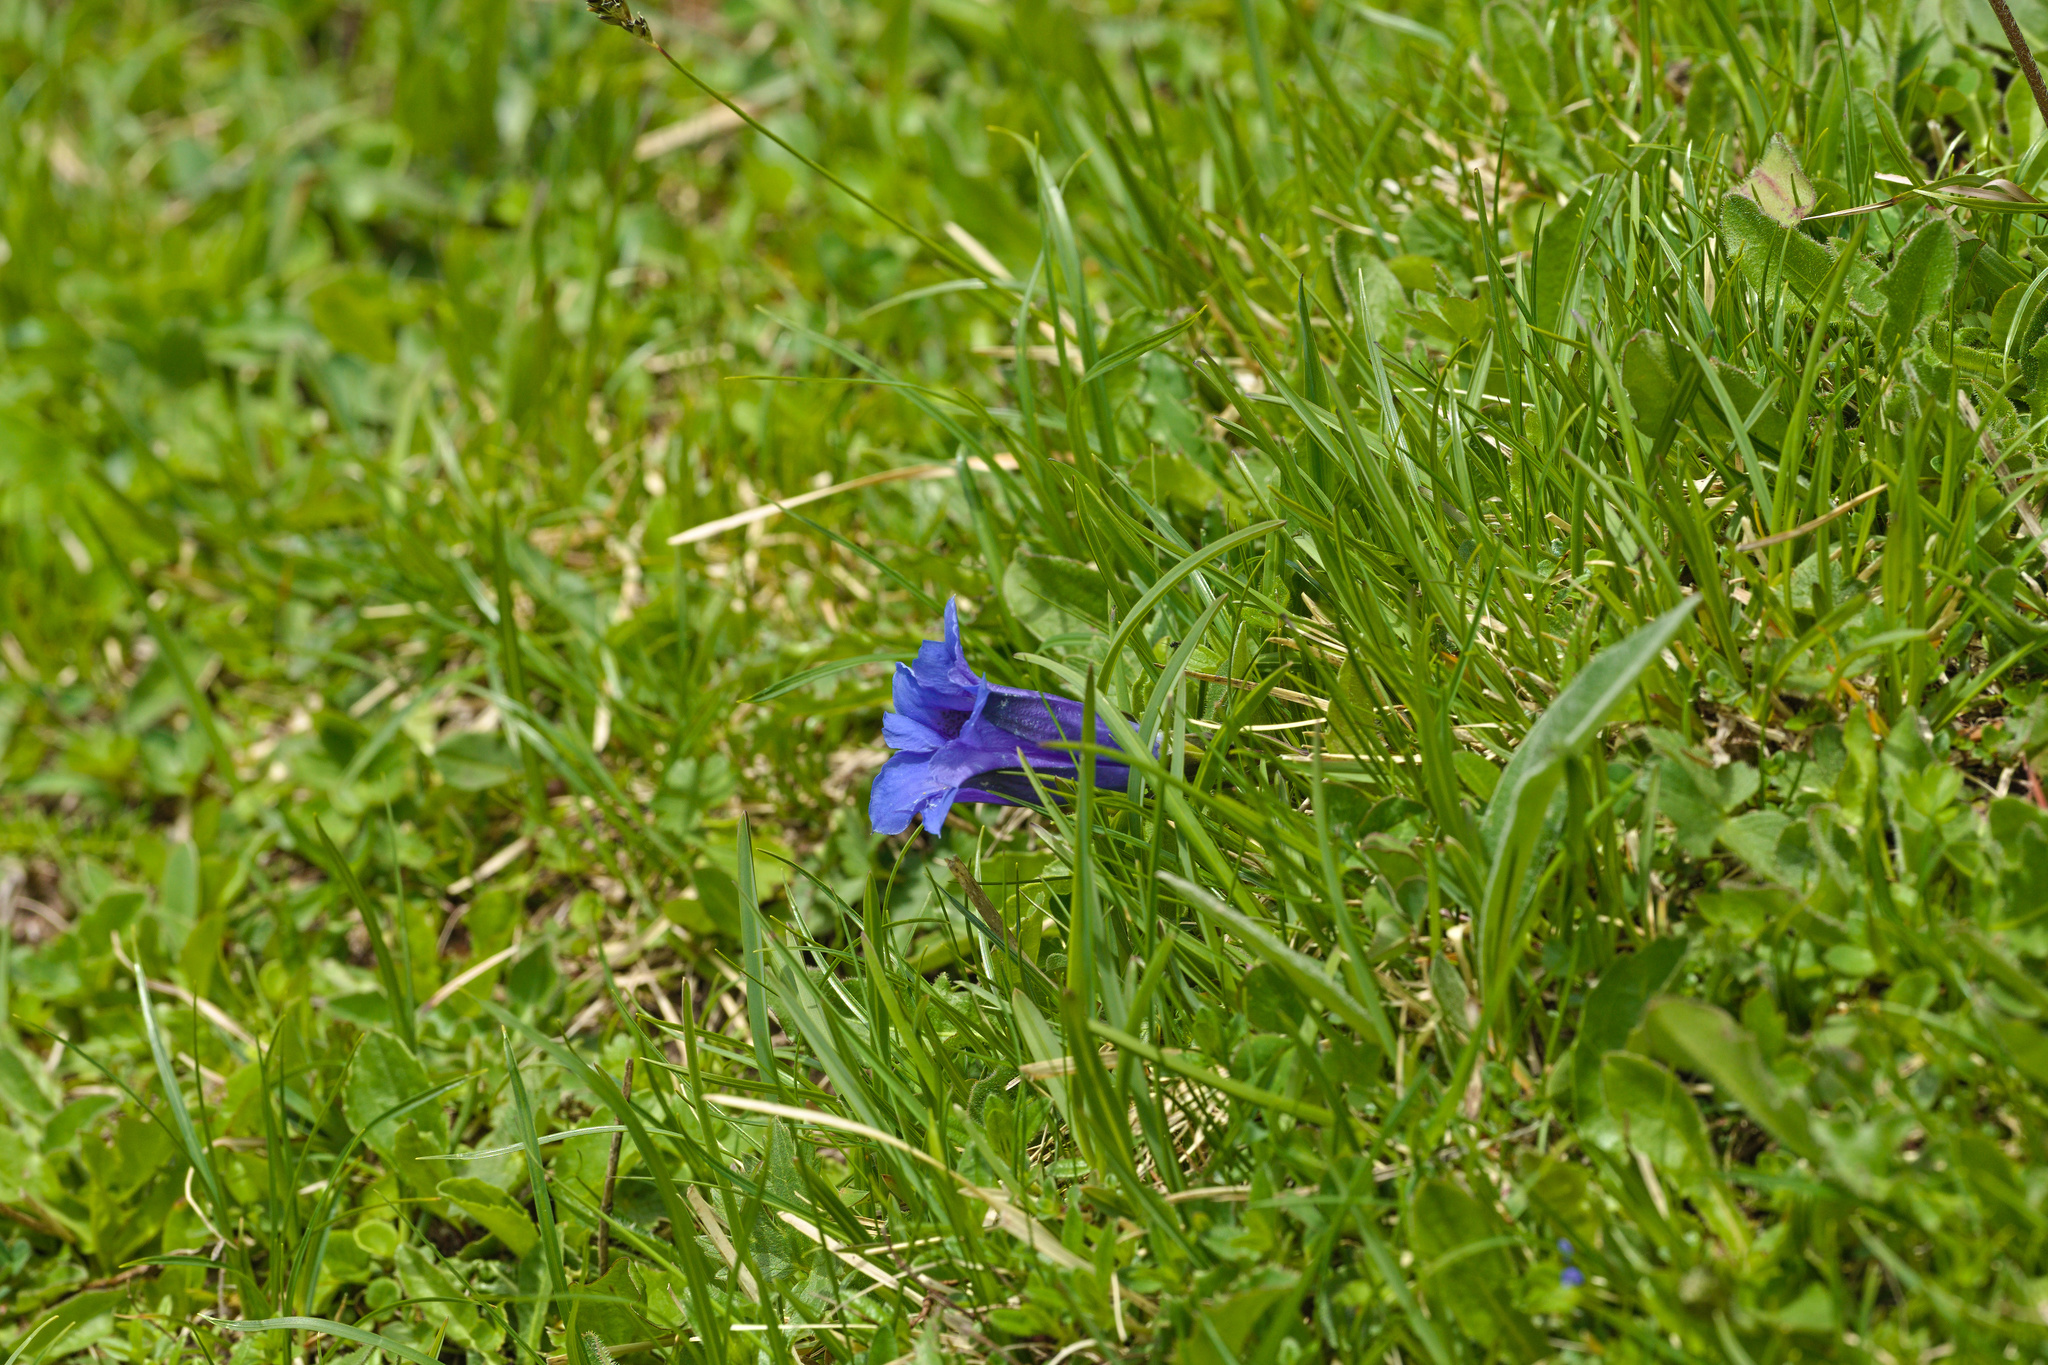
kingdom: Plantae
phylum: Tracheophyta
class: Magnoliopsida
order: Gentianales
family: Gentianaceae
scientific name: Gentianaceae
